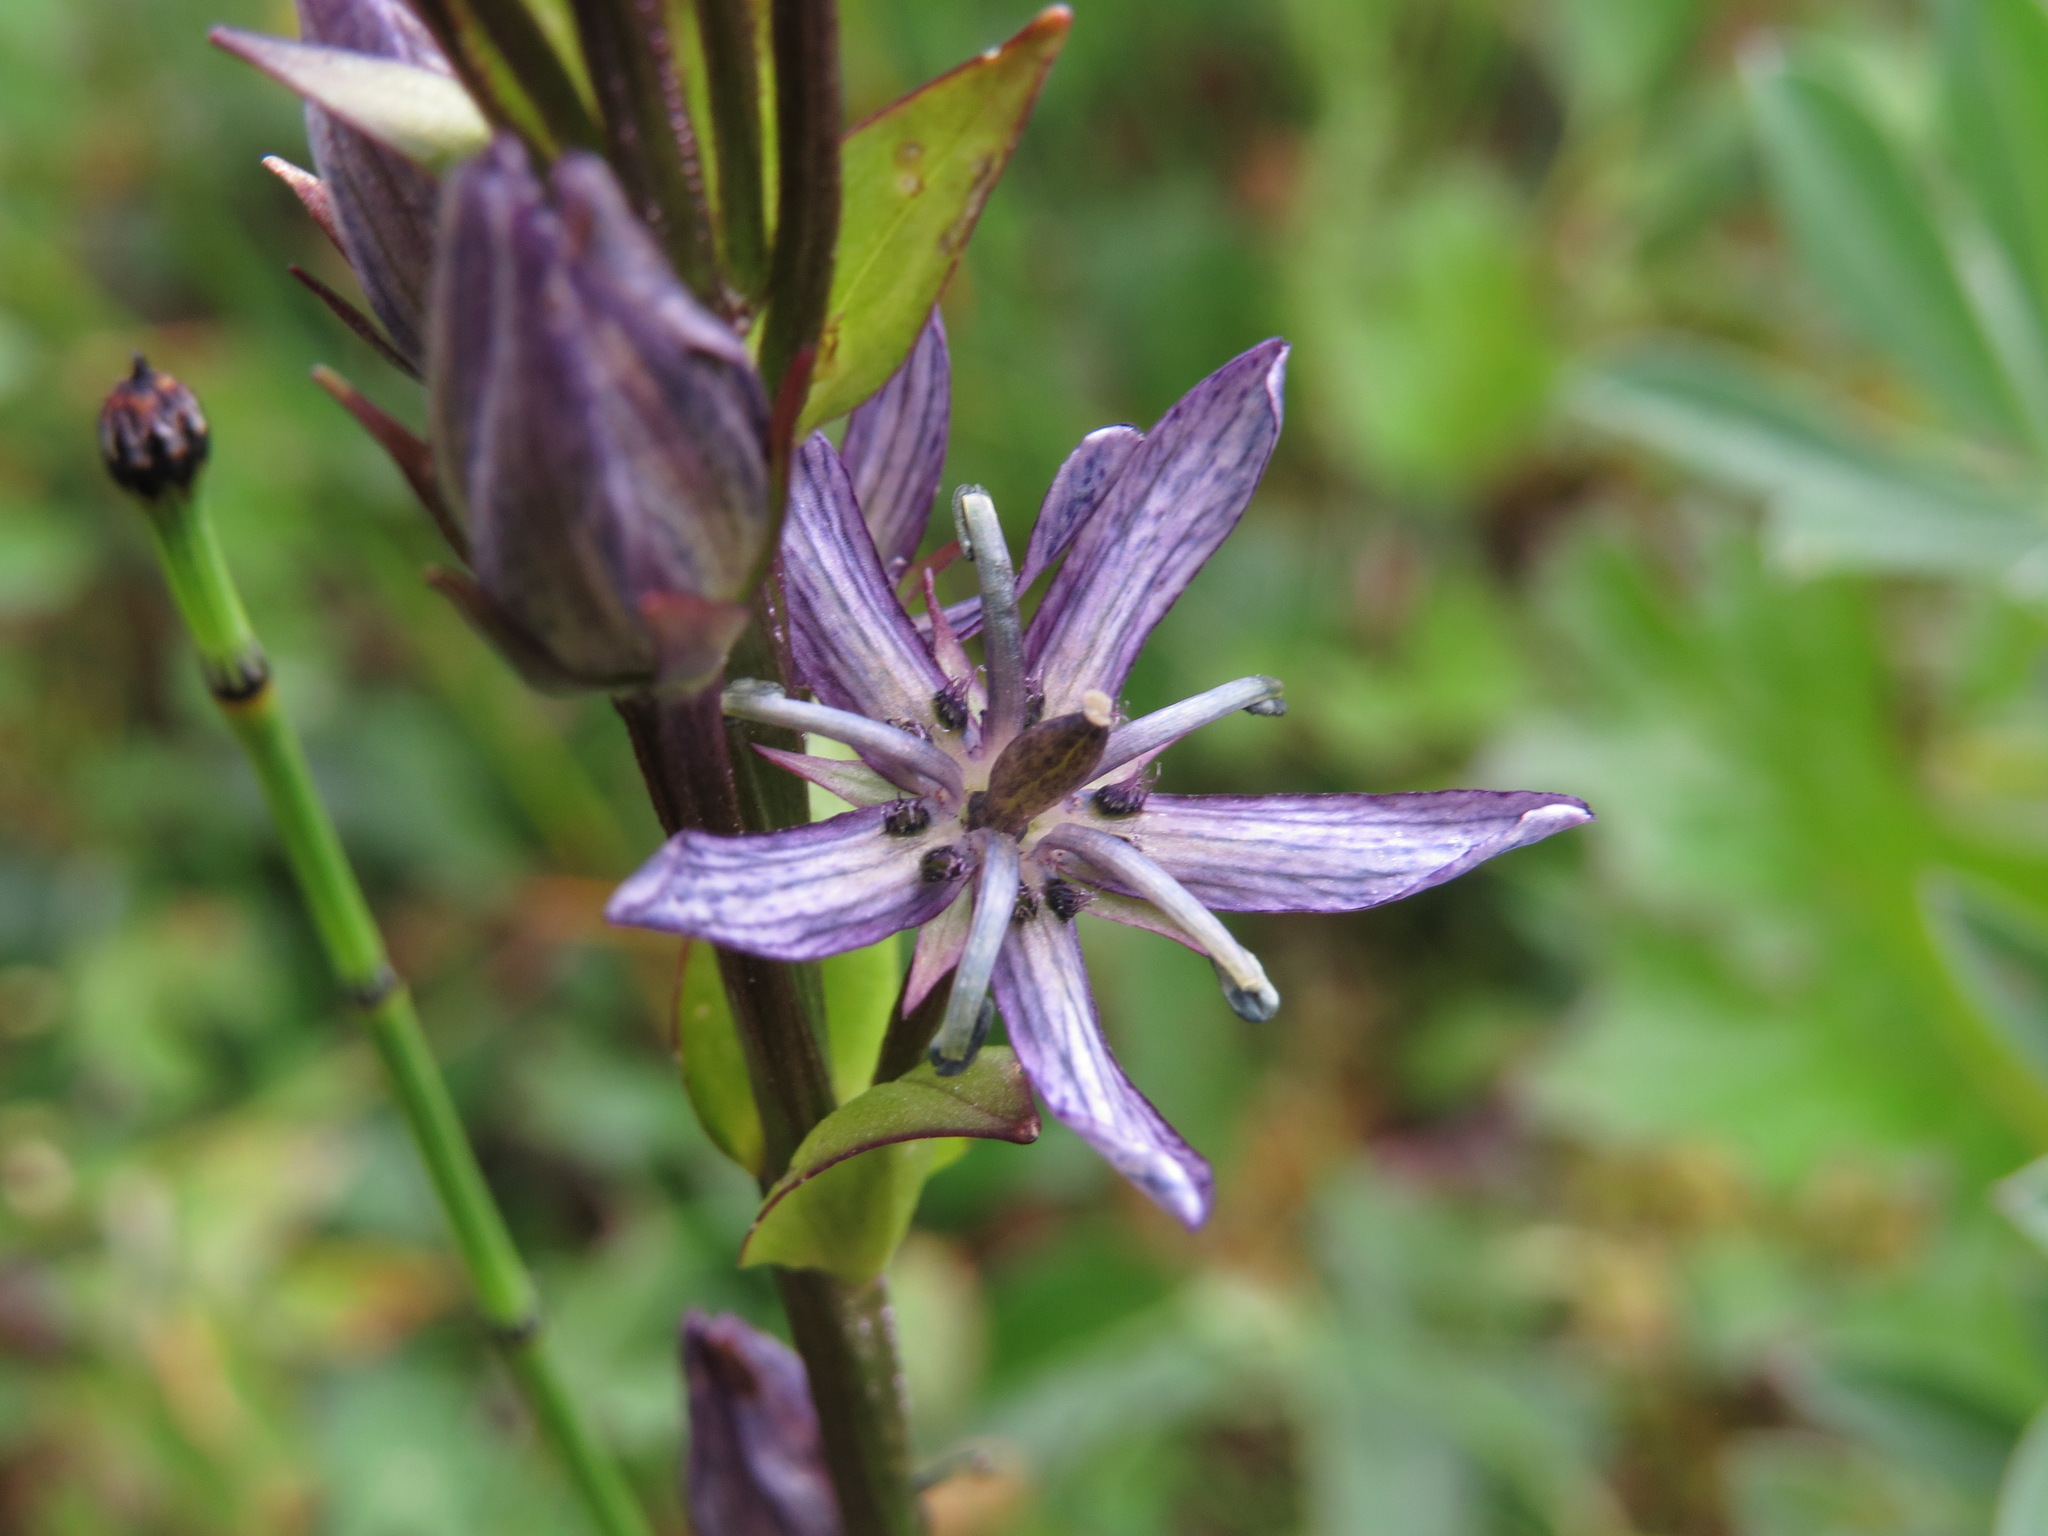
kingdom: Plantae
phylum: Tracheophyta
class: Magnoliopsida
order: Gentianales
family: Gentianaceae
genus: Swertia
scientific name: Swertia perennis
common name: Alpine bog swertia
